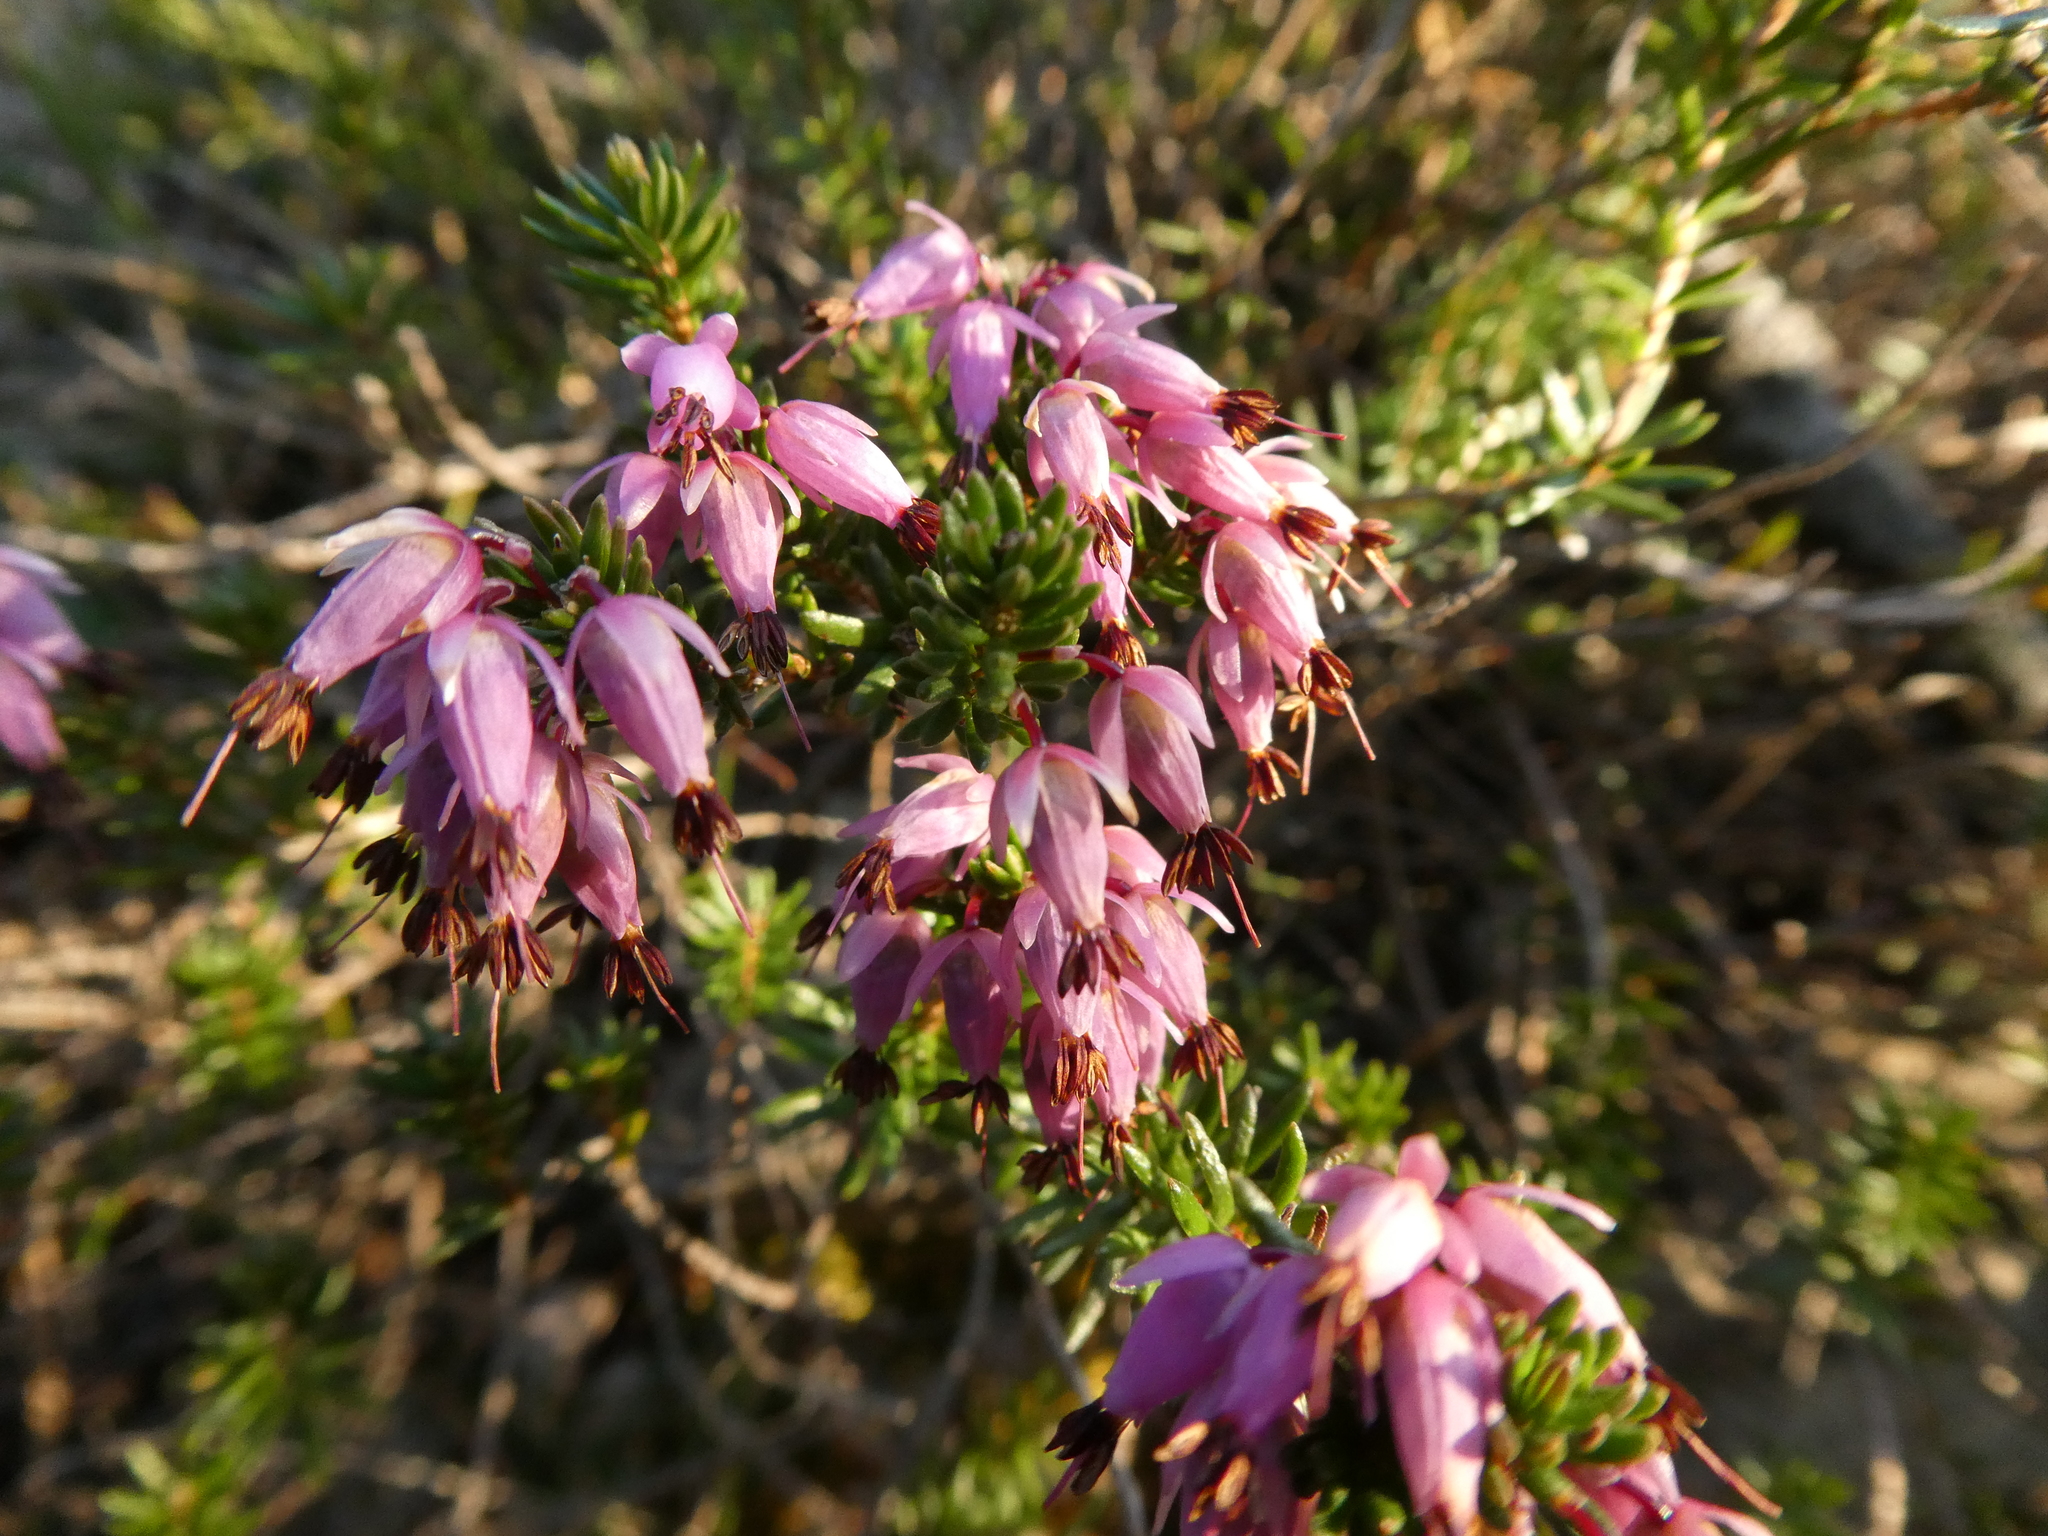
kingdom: Plantae
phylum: Tracheophyta
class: Magnoliopsida
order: Ericales
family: Ericaceae
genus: Erica
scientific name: Erica carnea
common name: Winter heath
